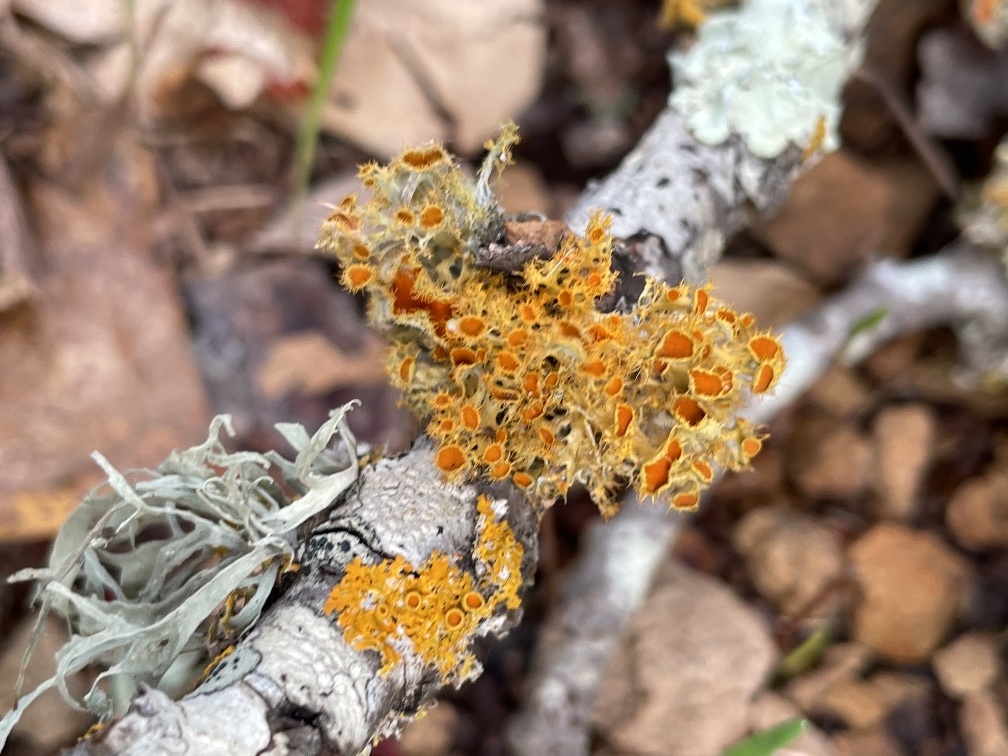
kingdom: Fungi
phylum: Ascomycota
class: Lecanoromycetes
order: Teloschistales
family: Teloschistaceae
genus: Niorma
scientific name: Niorma chrysophthalma
